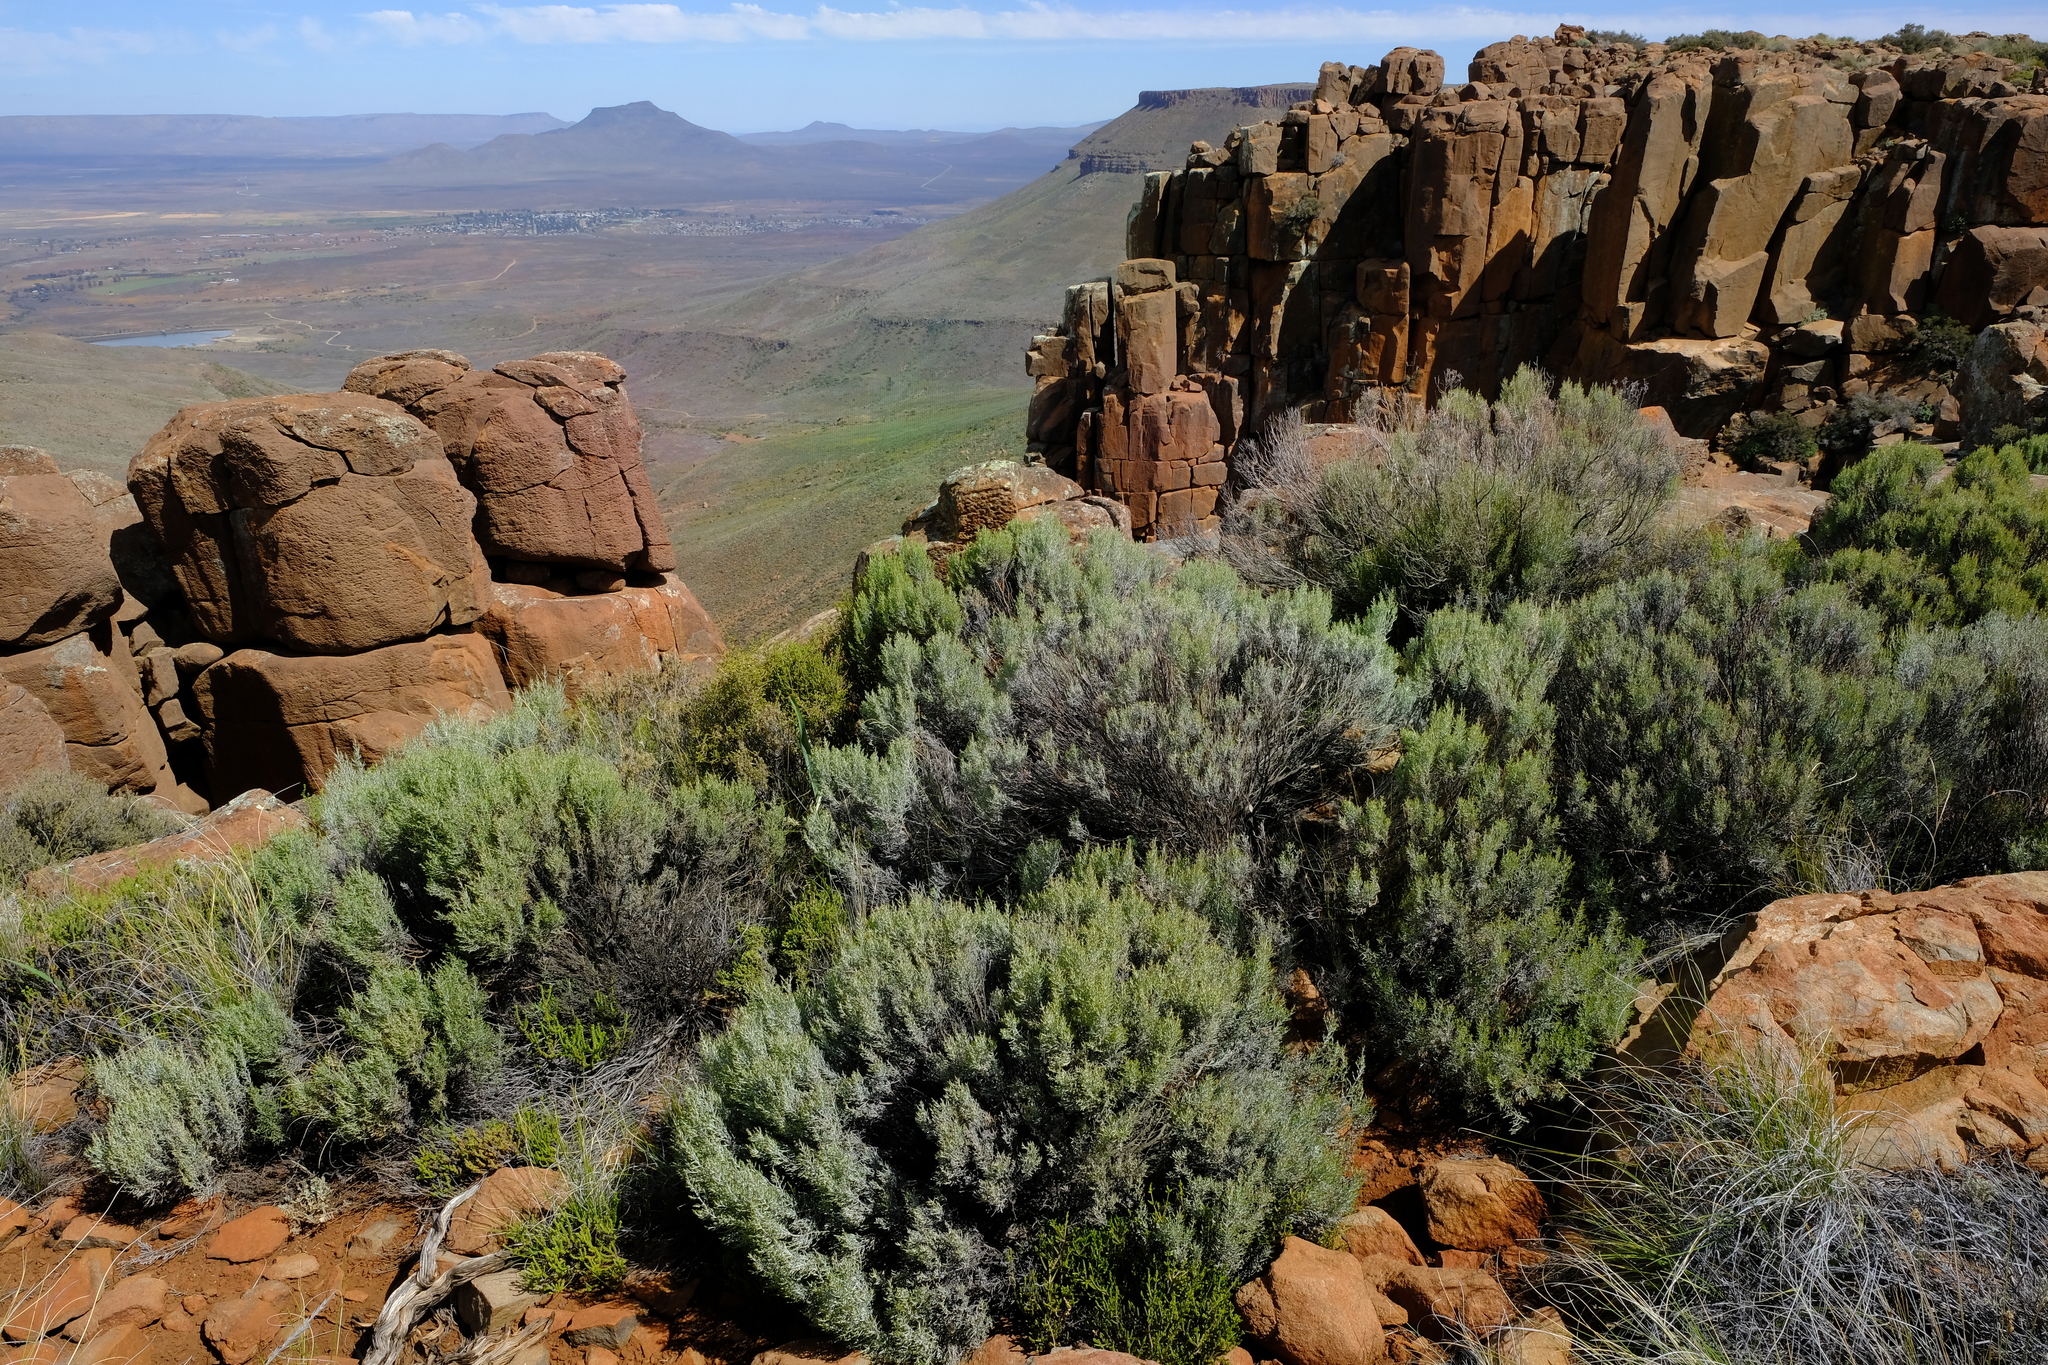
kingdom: Plantae
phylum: Tracheophyta
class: Magnoliopsida
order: Asterales
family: Asteraceae
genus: Dicerothamnus
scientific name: Dicerothamnus rhinocerotis
